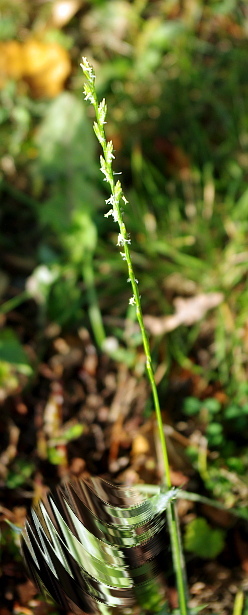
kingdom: Plantae
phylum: Tracheophyta
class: Liliopsida
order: Poales
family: Poaceae
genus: Lolium
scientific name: Lolium perenne
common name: Perennial ryegrass
